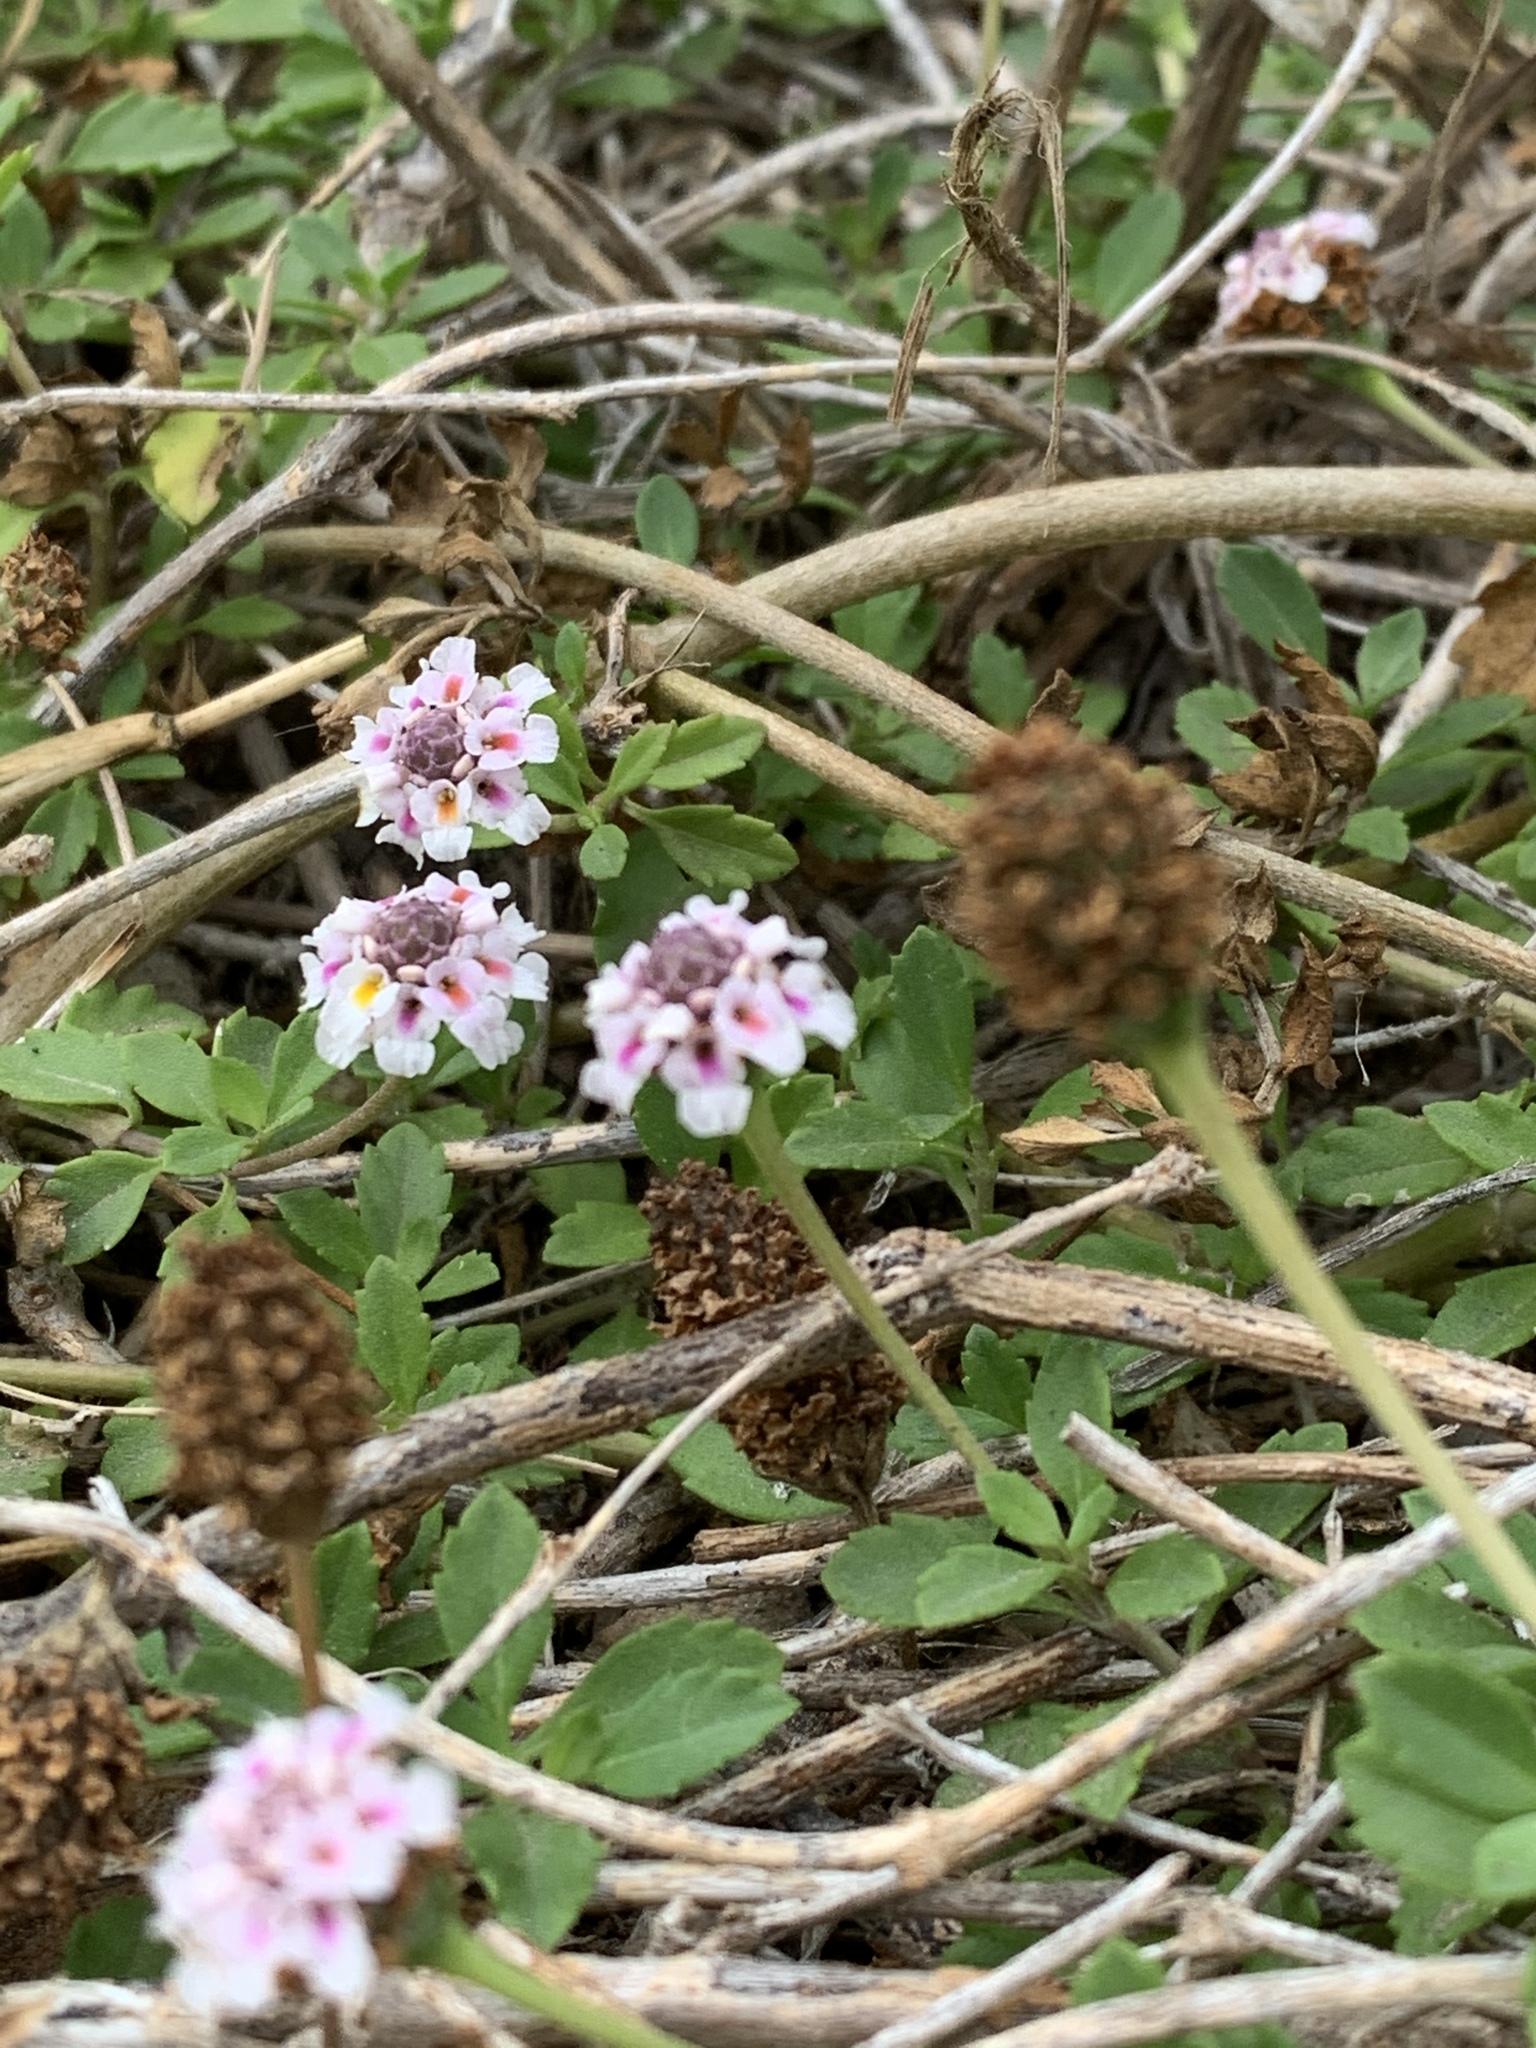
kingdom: Plantae
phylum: Tracheophyta
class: Magnoliopsida
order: Lamiales
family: Verbenaceae
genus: Phyla
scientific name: Phyla nodiflora
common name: Frogfruit
